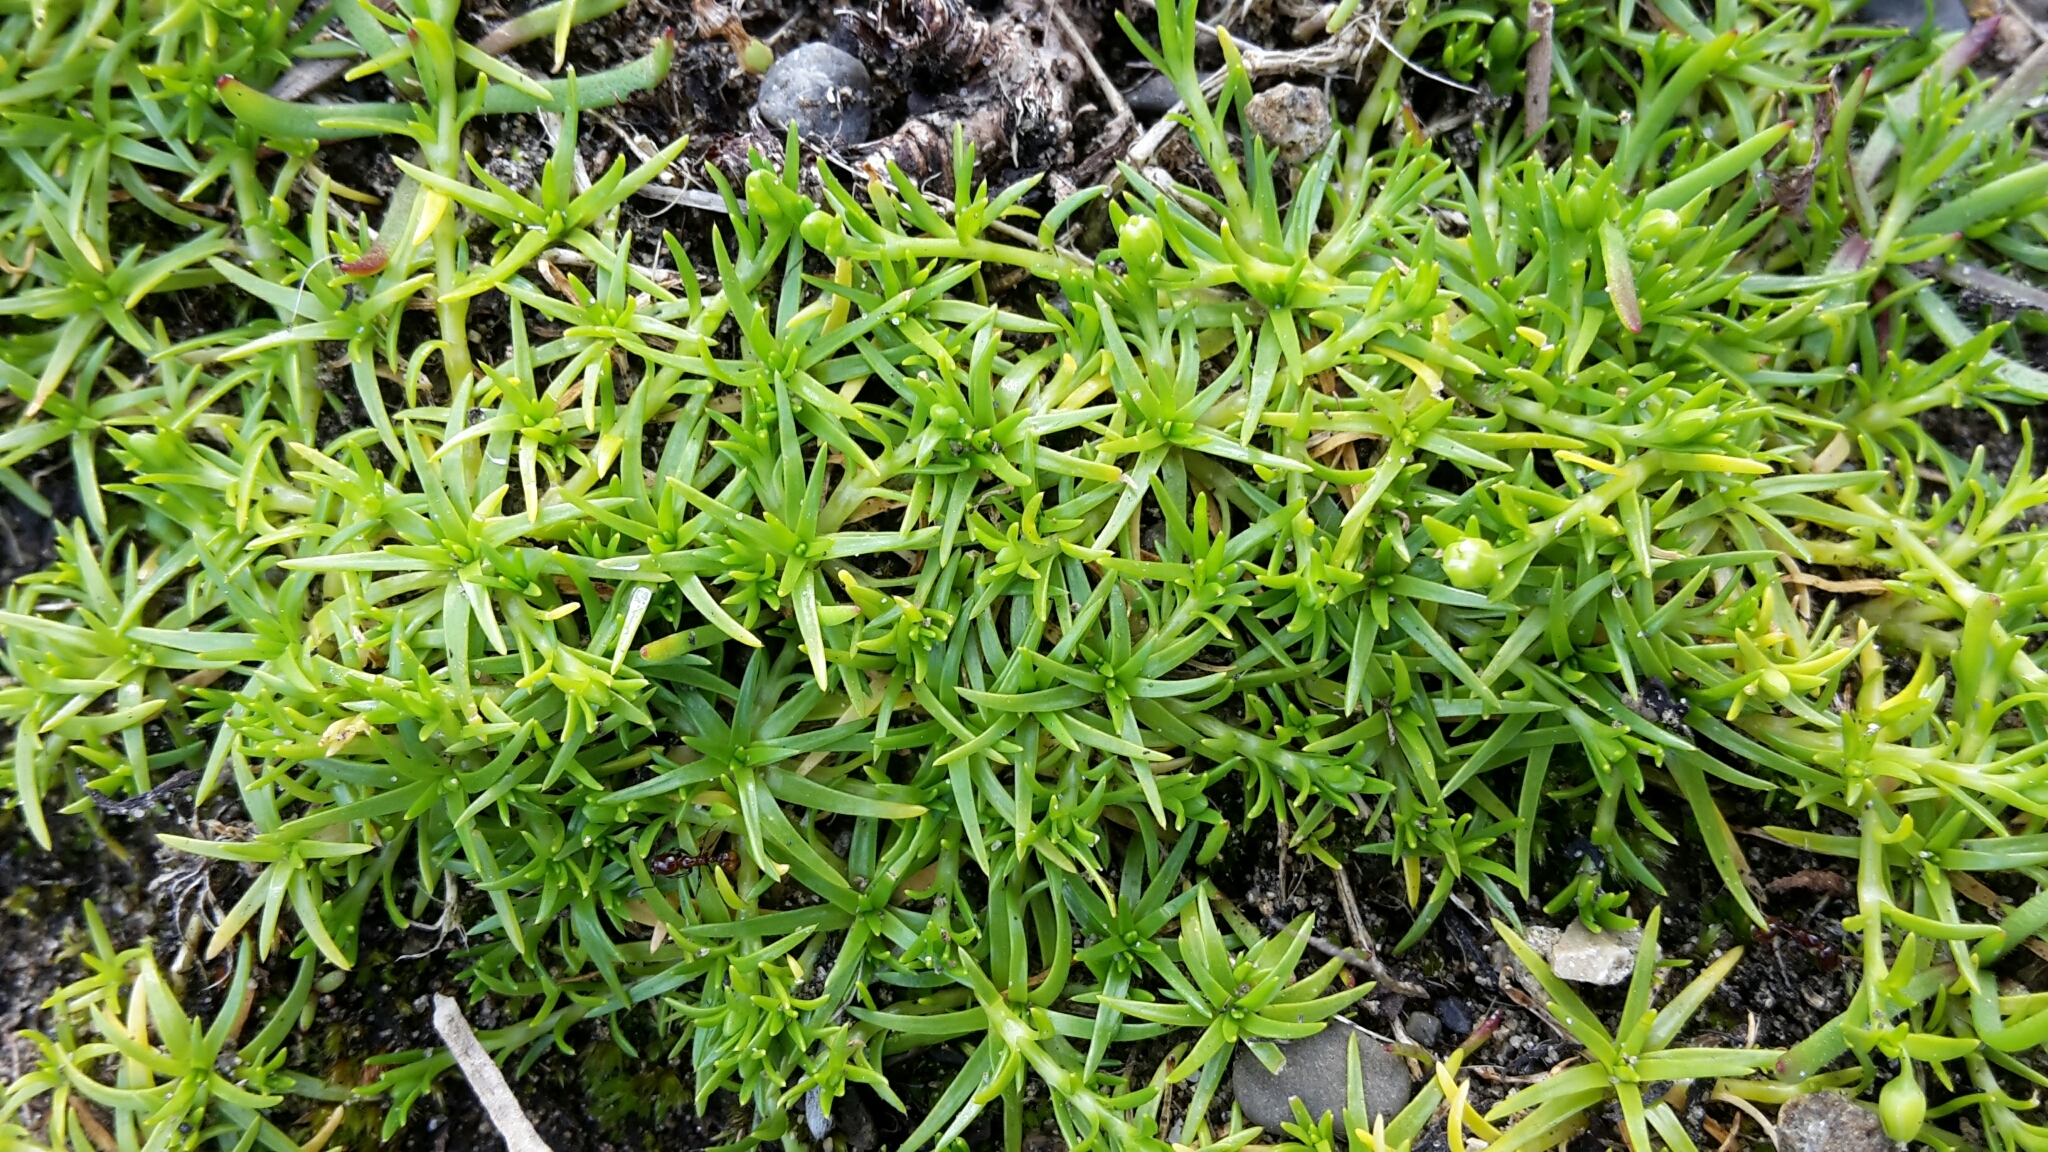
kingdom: Plantae
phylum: Tracheophyta
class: Magnoliopsida
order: Caryophyllales
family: Caryophyllaceae
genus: Sagina
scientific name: Sagina procumbens
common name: Procumbent pearlwort
